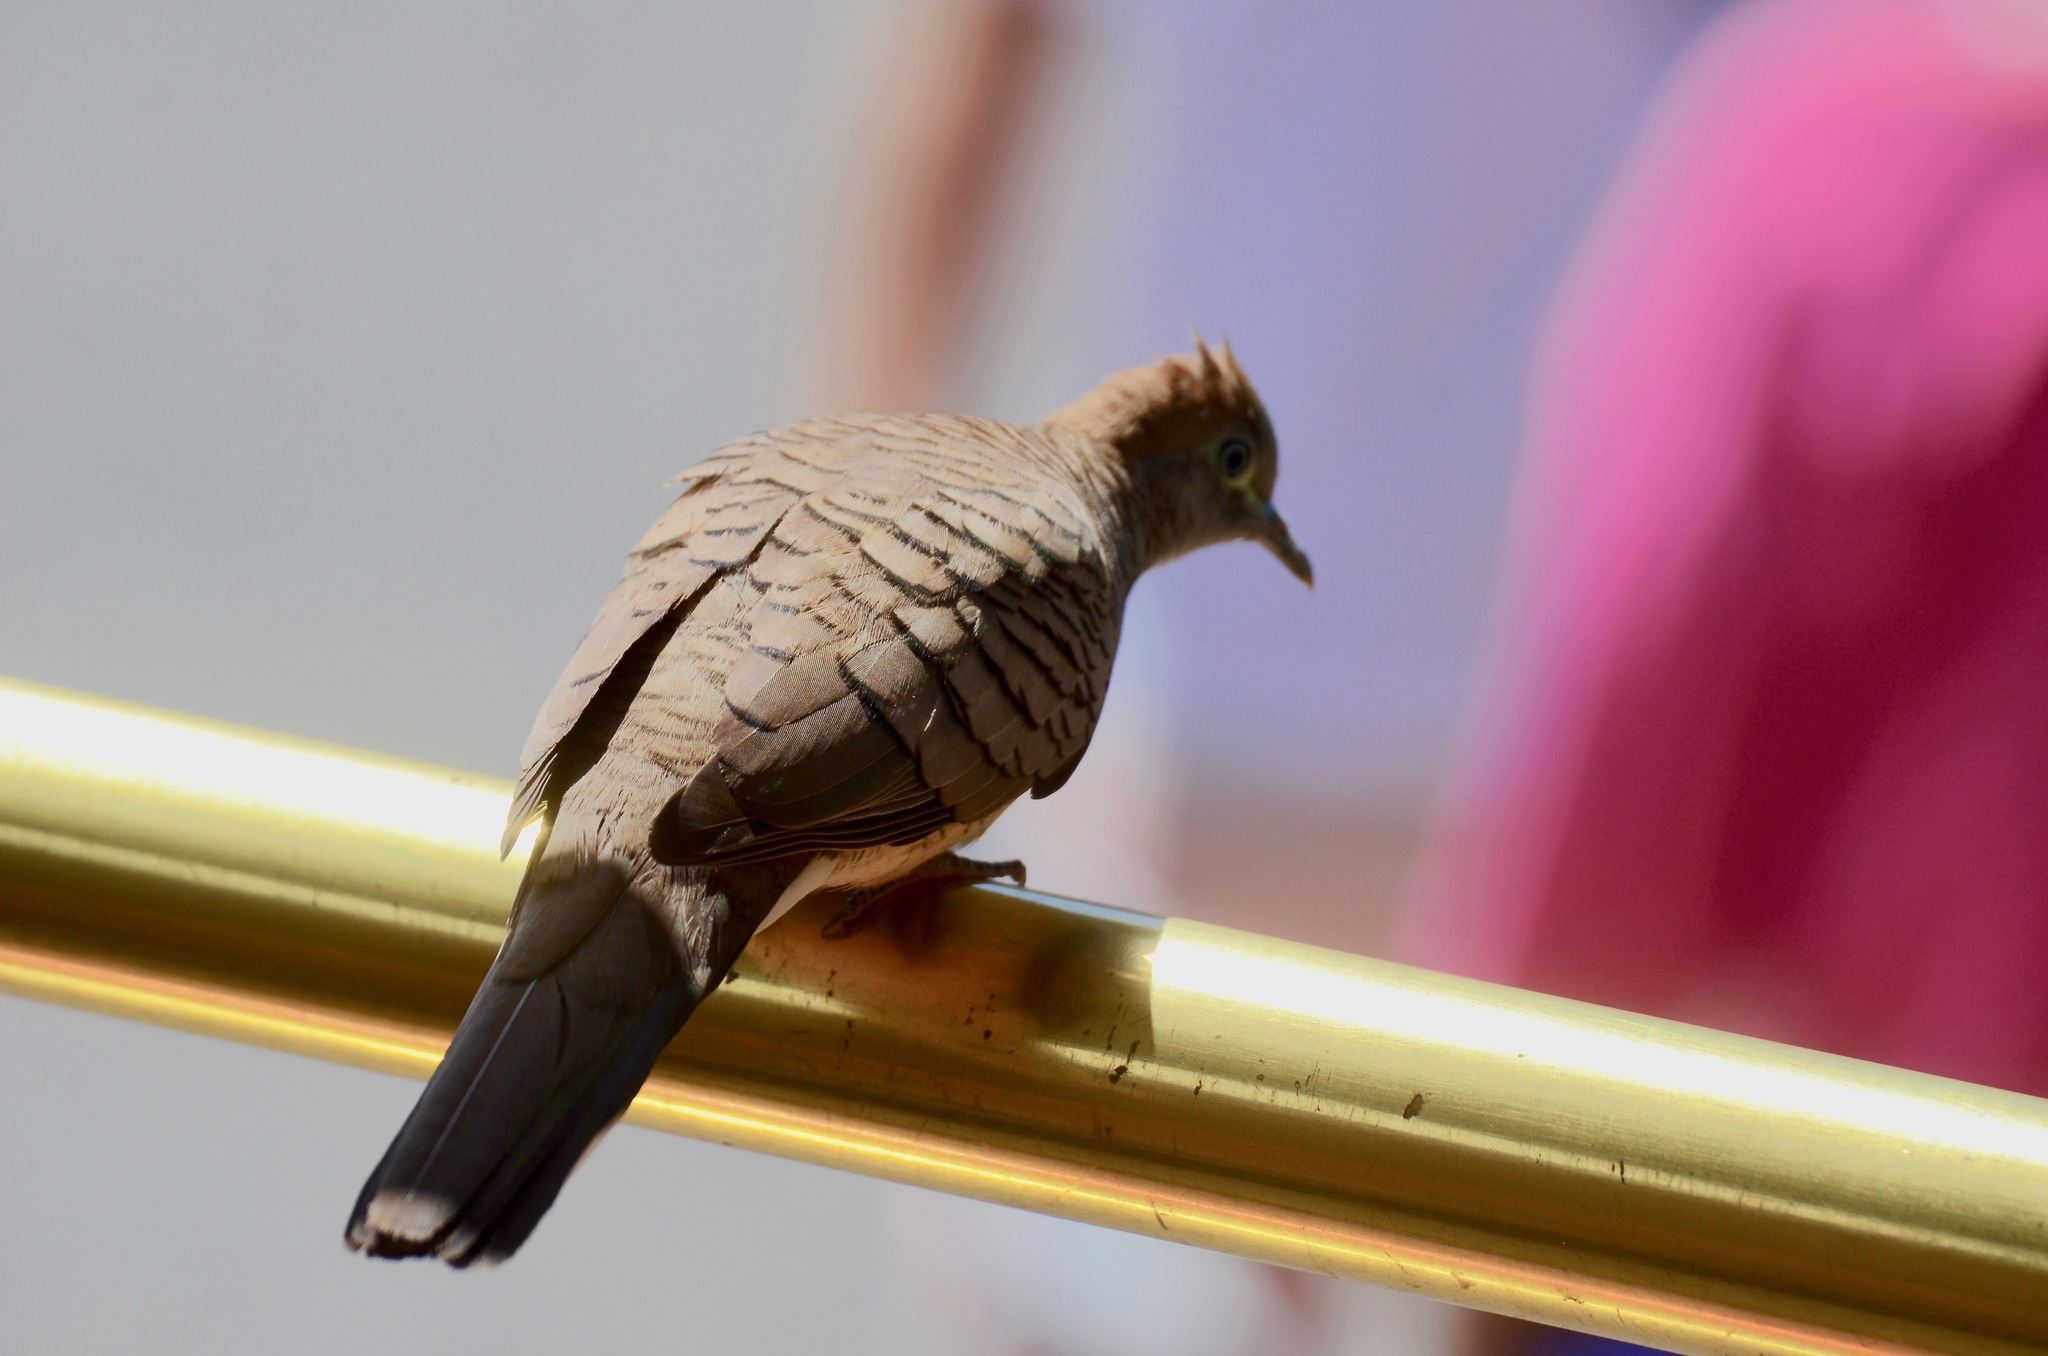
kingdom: Animalia
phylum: Chordata
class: Aves
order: Columbiformes
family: Columbidae
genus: Geopelia
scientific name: Geopelia striata
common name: Zebra dove
